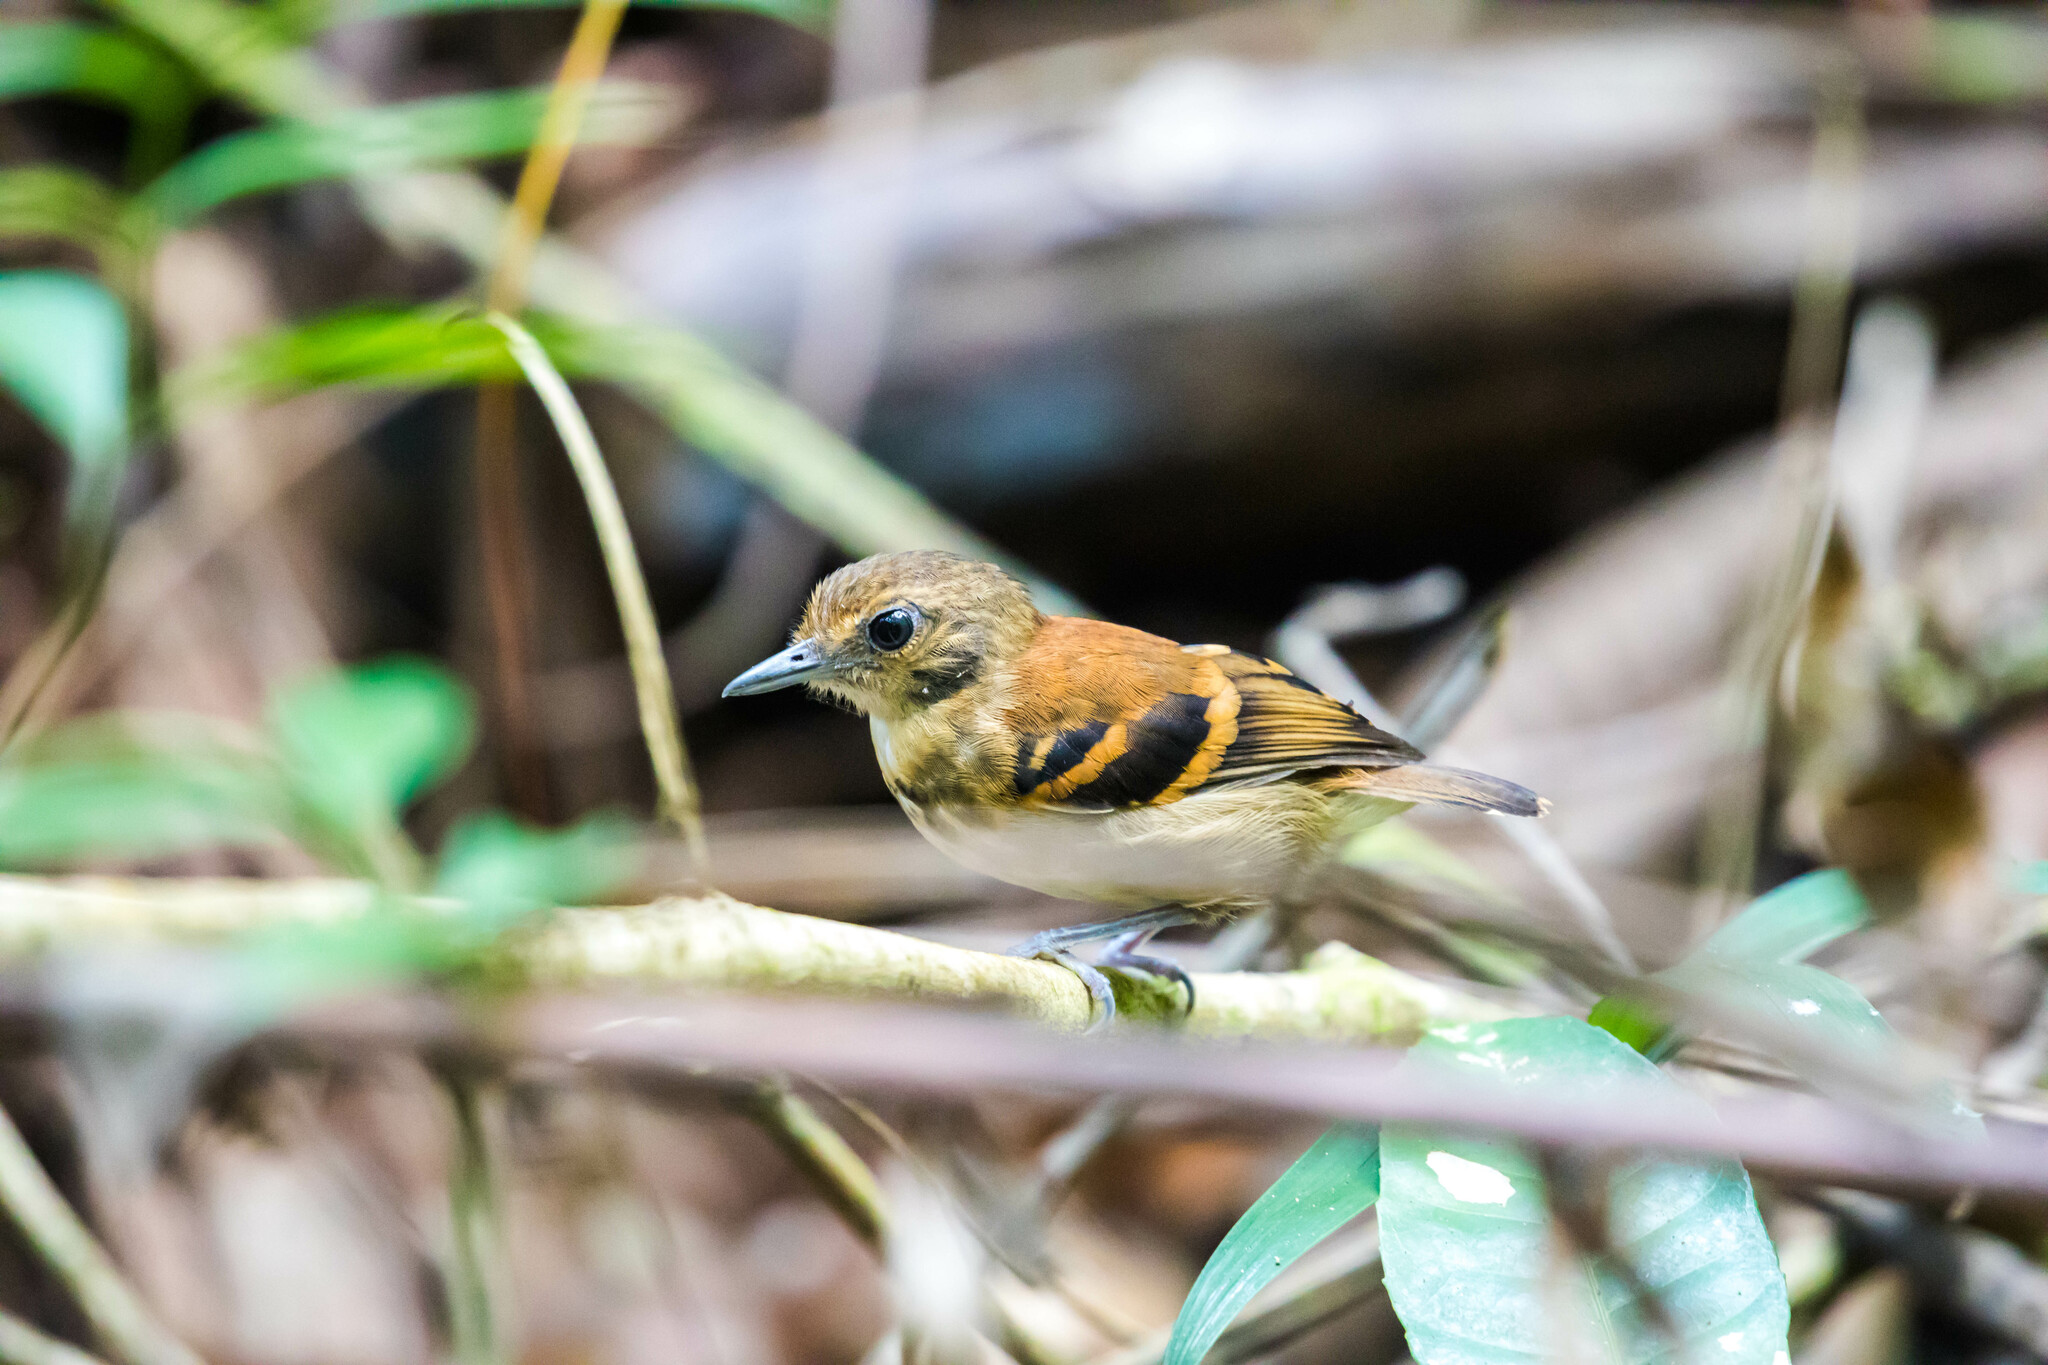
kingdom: Animalia
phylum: Chordata
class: Aves
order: Passeriformes
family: Thamnophilidae
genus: Hylophylax
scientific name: Hylophylax naevioides
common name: Spotted antbird
